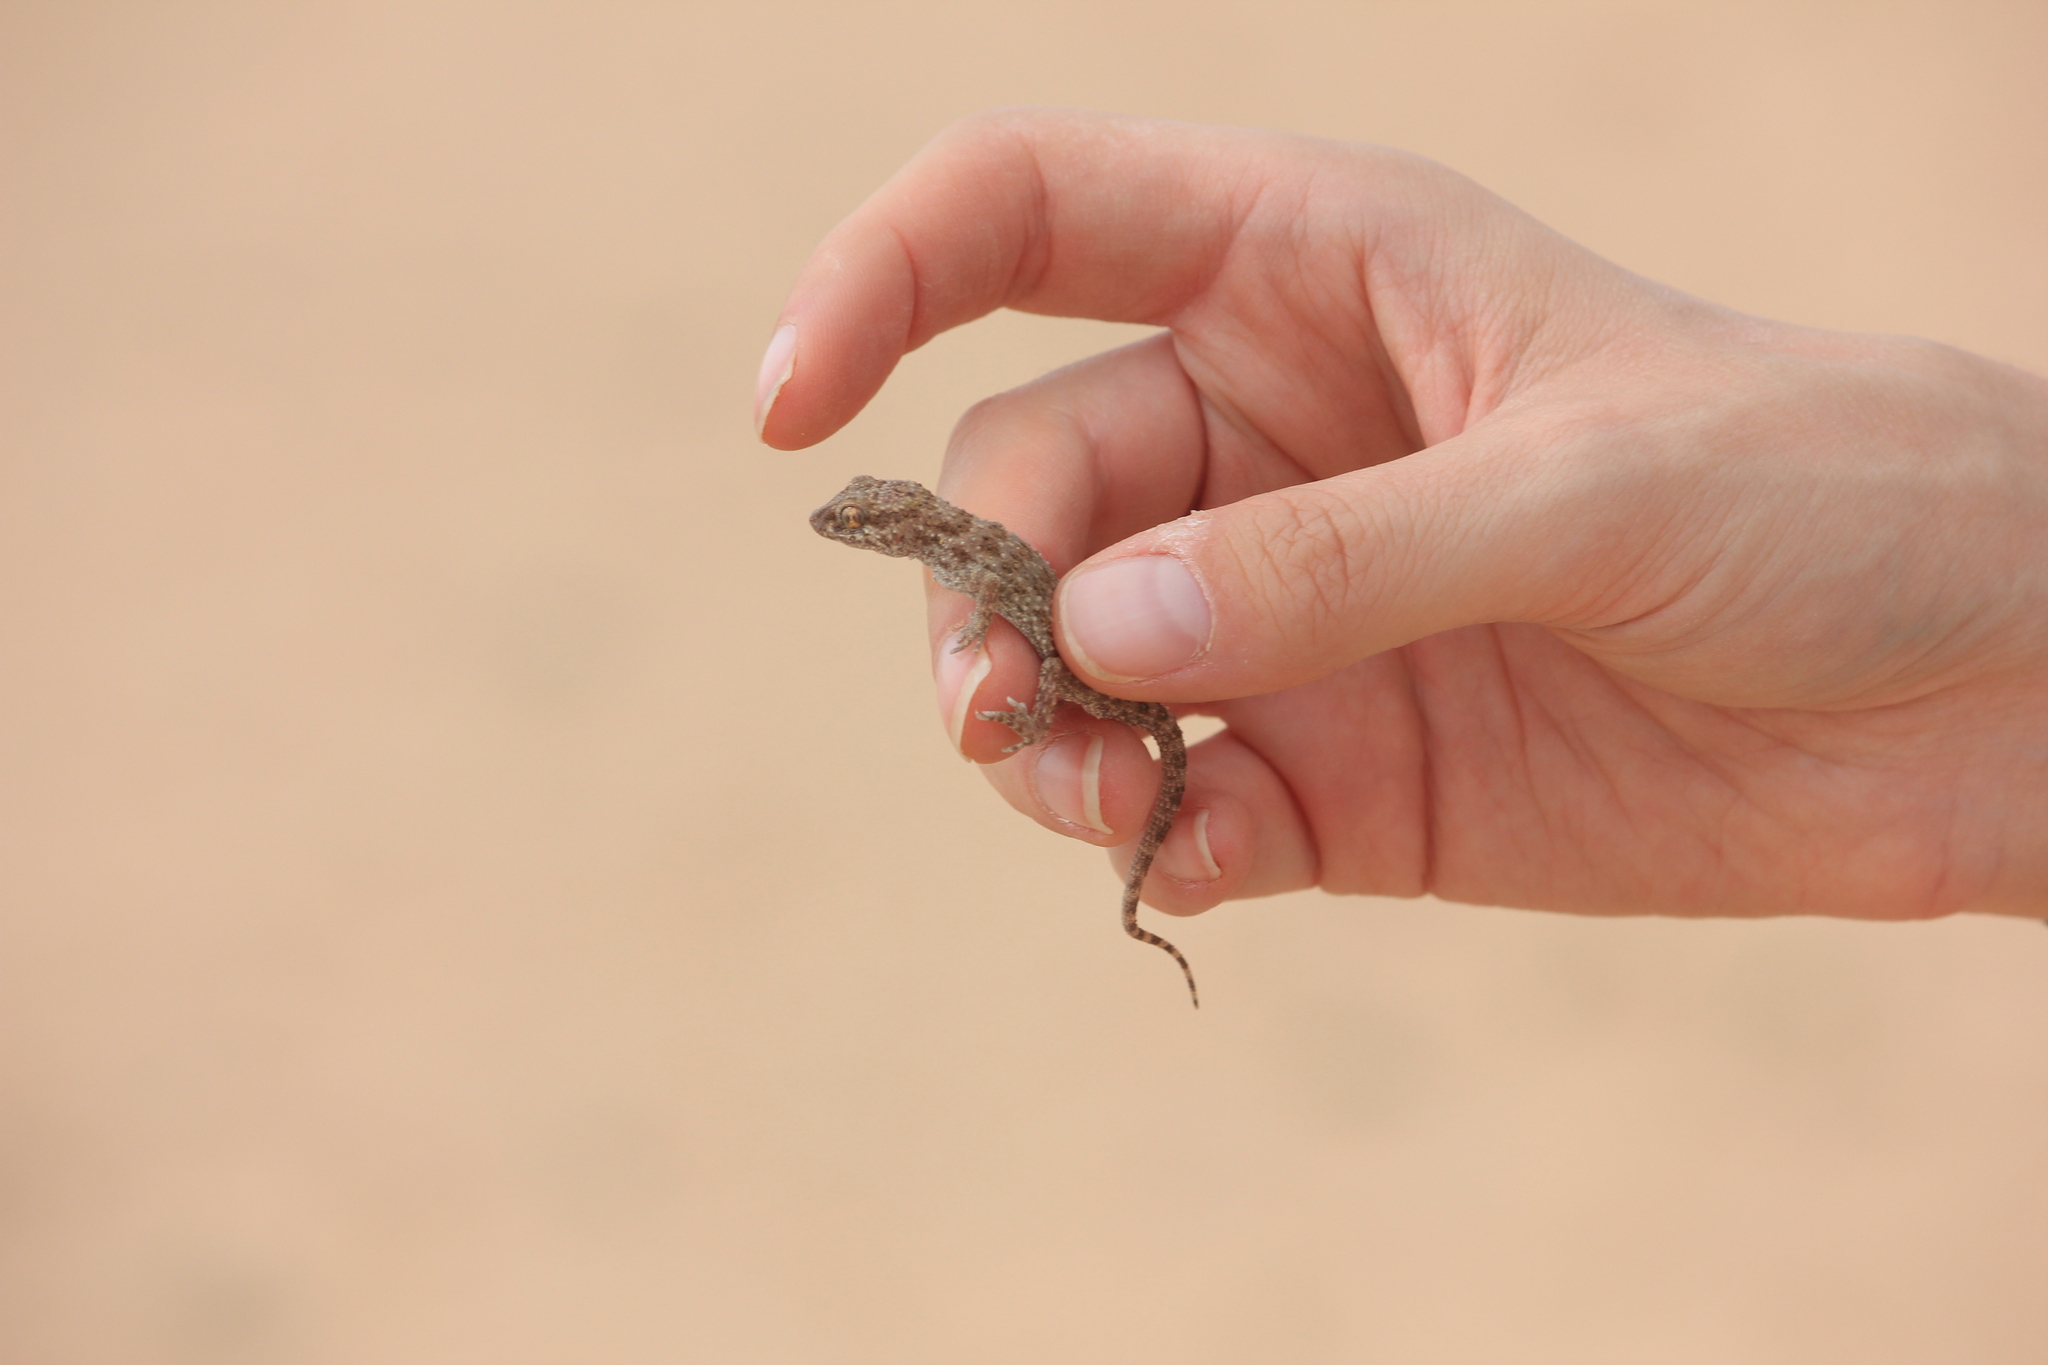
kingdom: Animalia
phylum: Chordata
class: Squamata
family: Gekkonidae
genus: Bunopus
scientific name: Bunopus tuberculatus
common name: Southern tuberculated gecko
